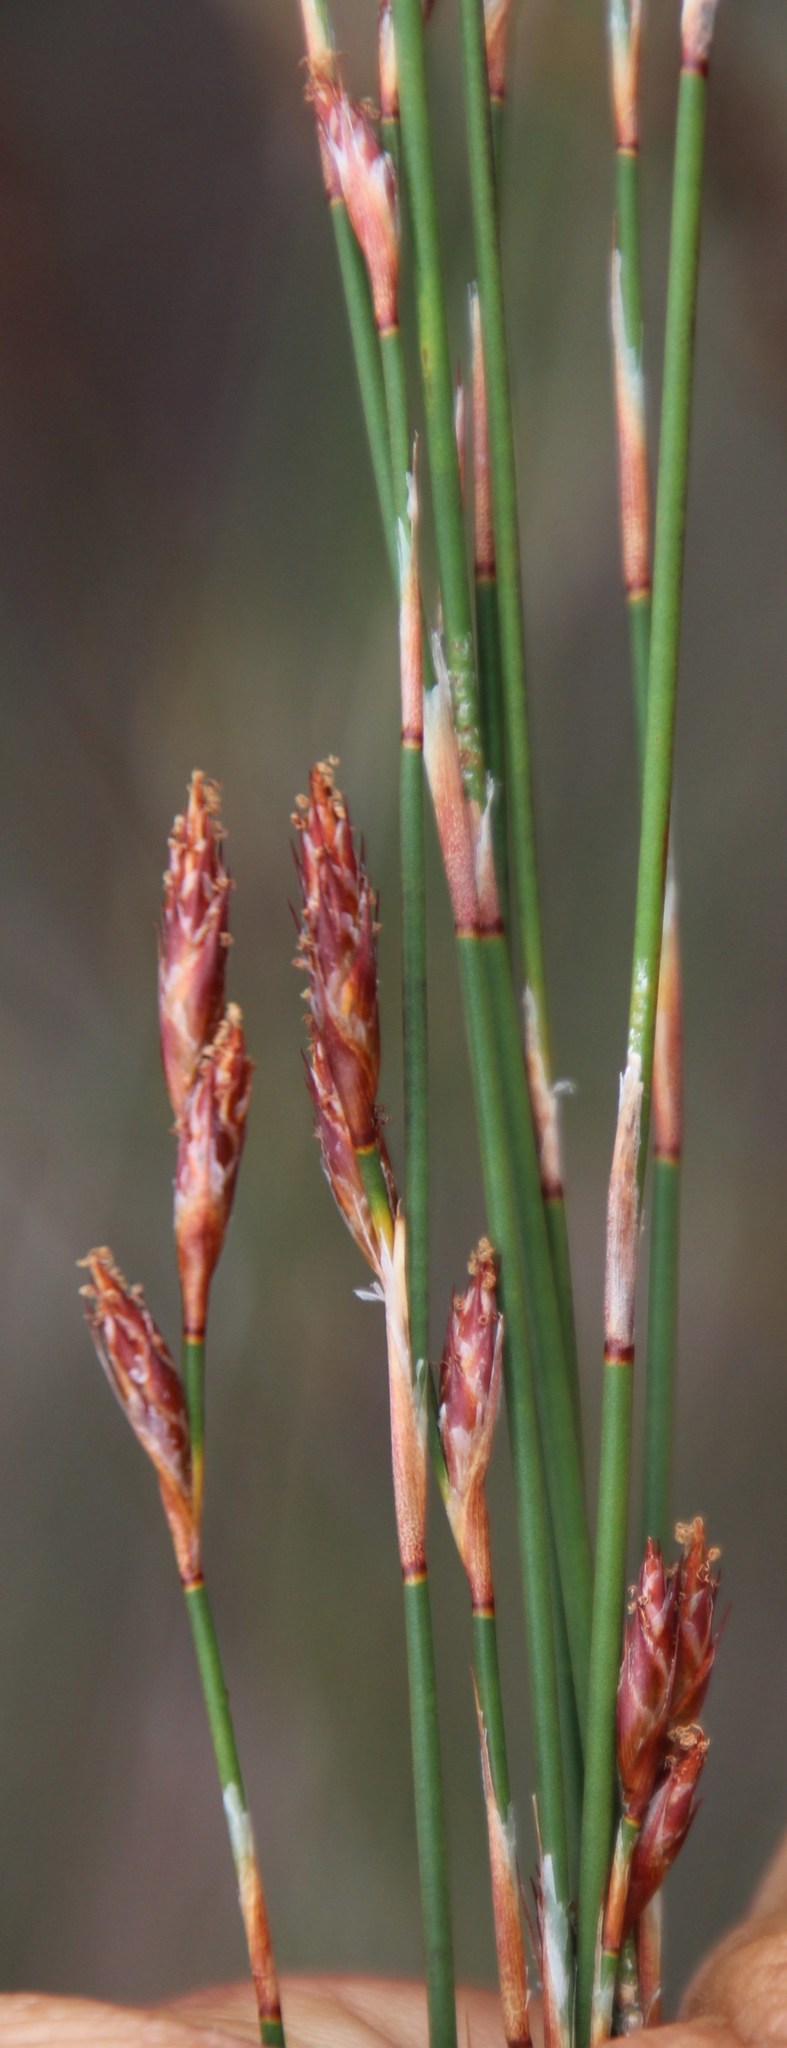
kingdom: Plantae
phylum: Tracheophyta
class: Liliopsida
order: Poales
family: Restionaceae
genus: Restio
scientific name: Restio vilis
